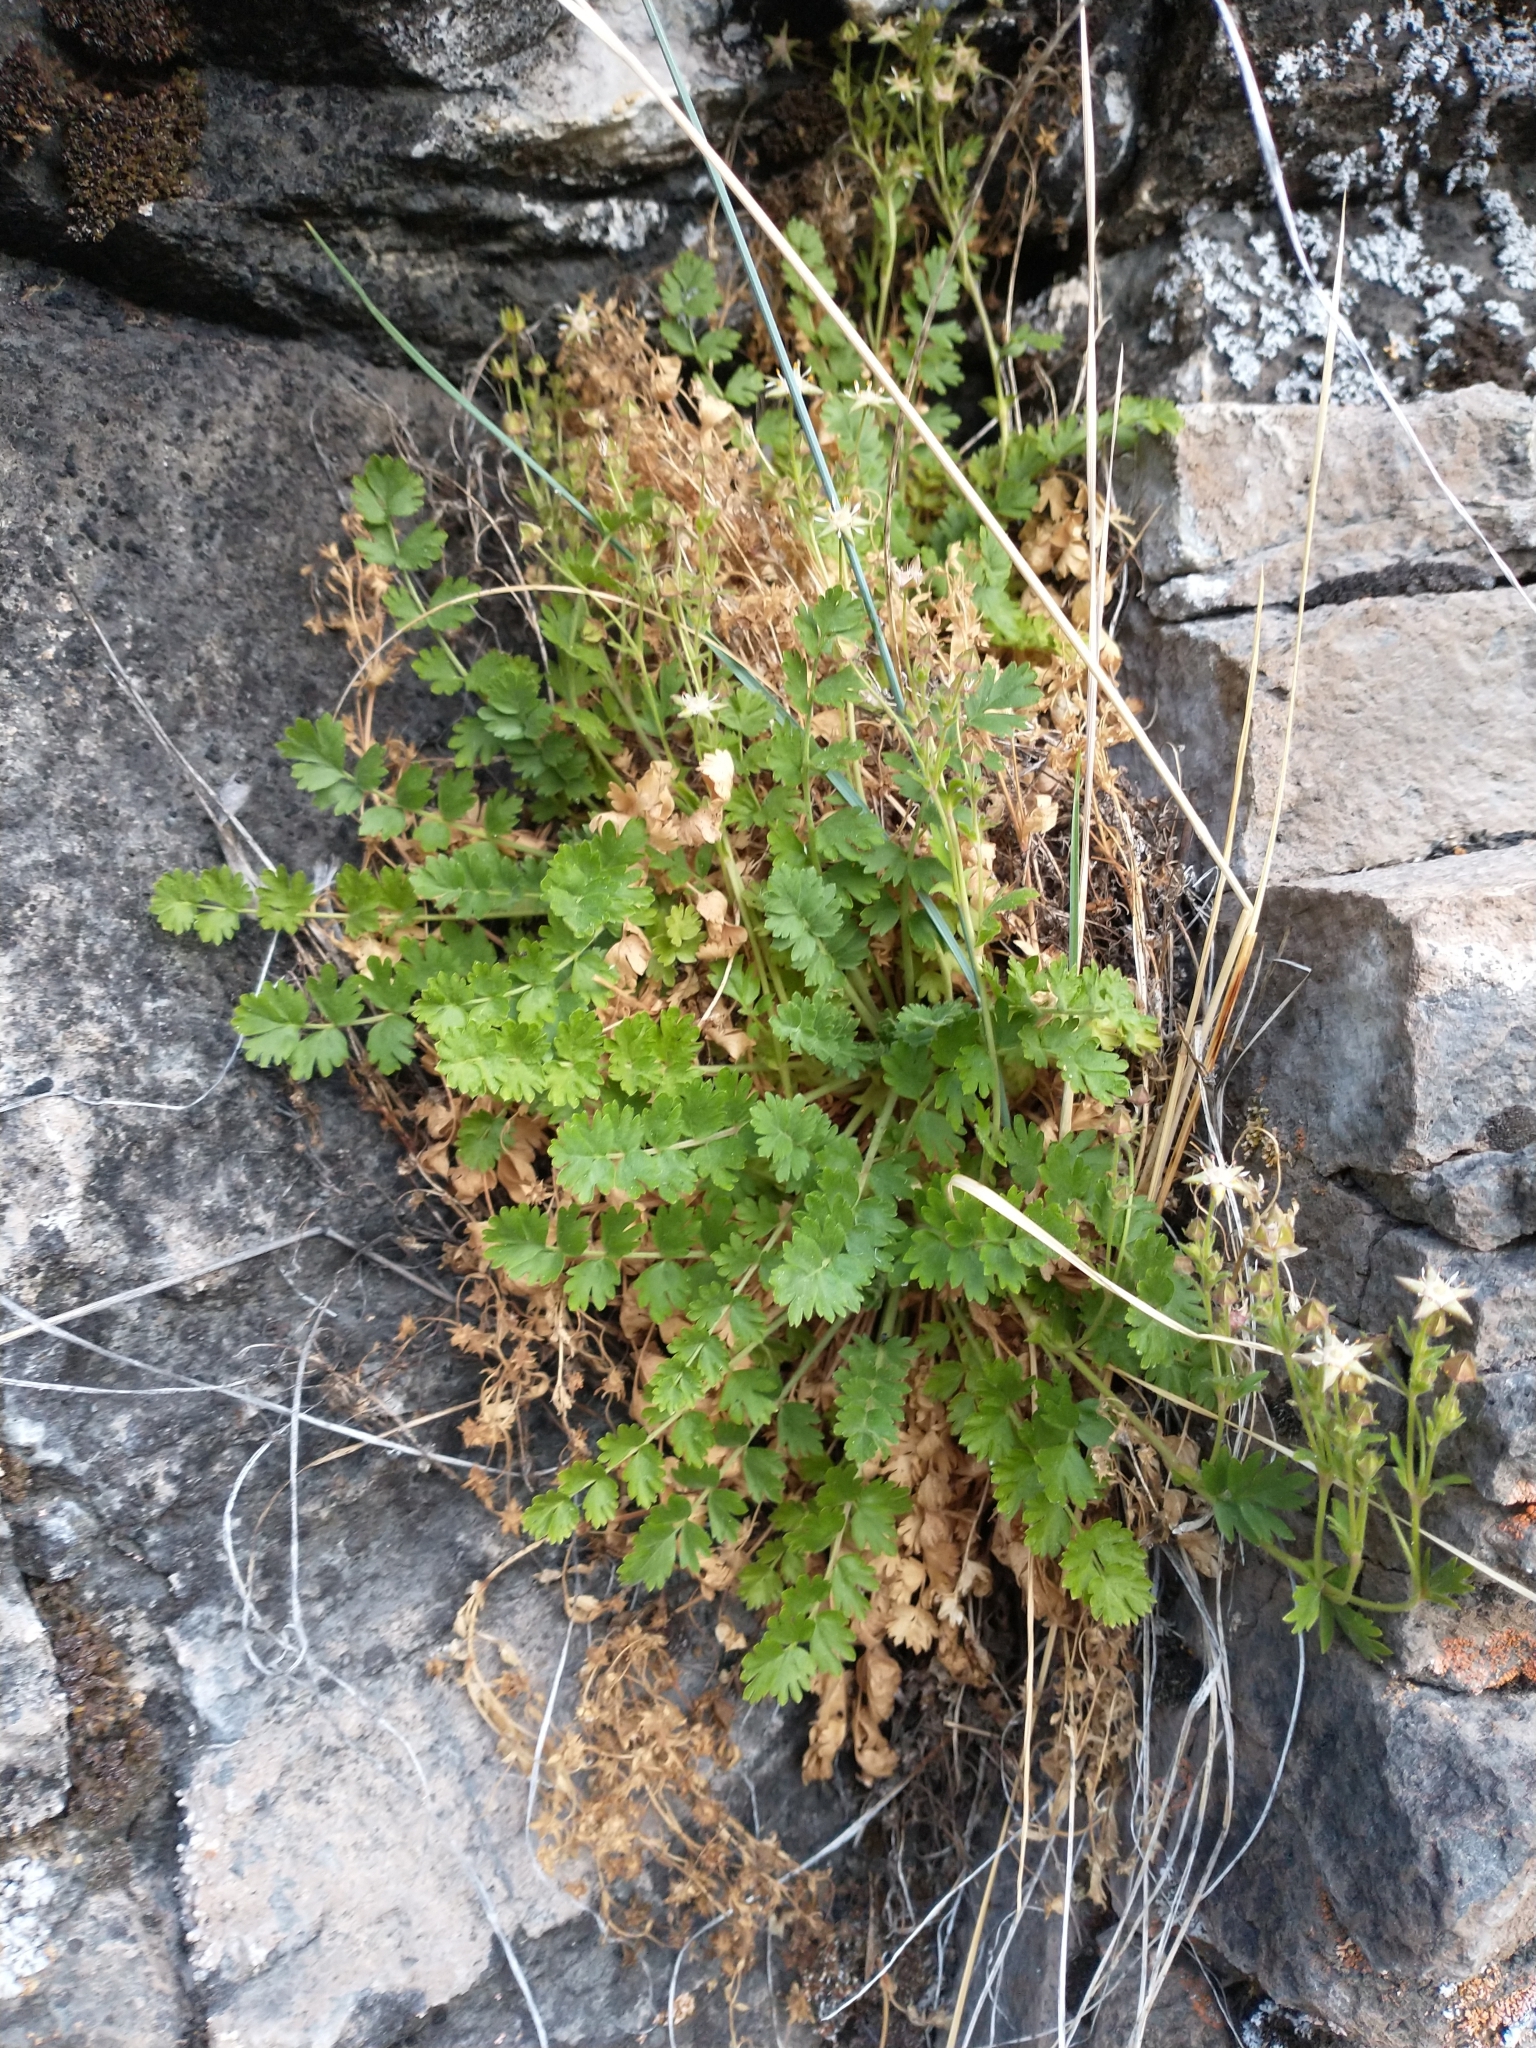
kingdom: Plantae
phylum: Tracheophyta
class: Magnoliopsida
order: Rosales
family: Rosaceae
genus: Potentilla
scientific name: Potentilla baileyi
